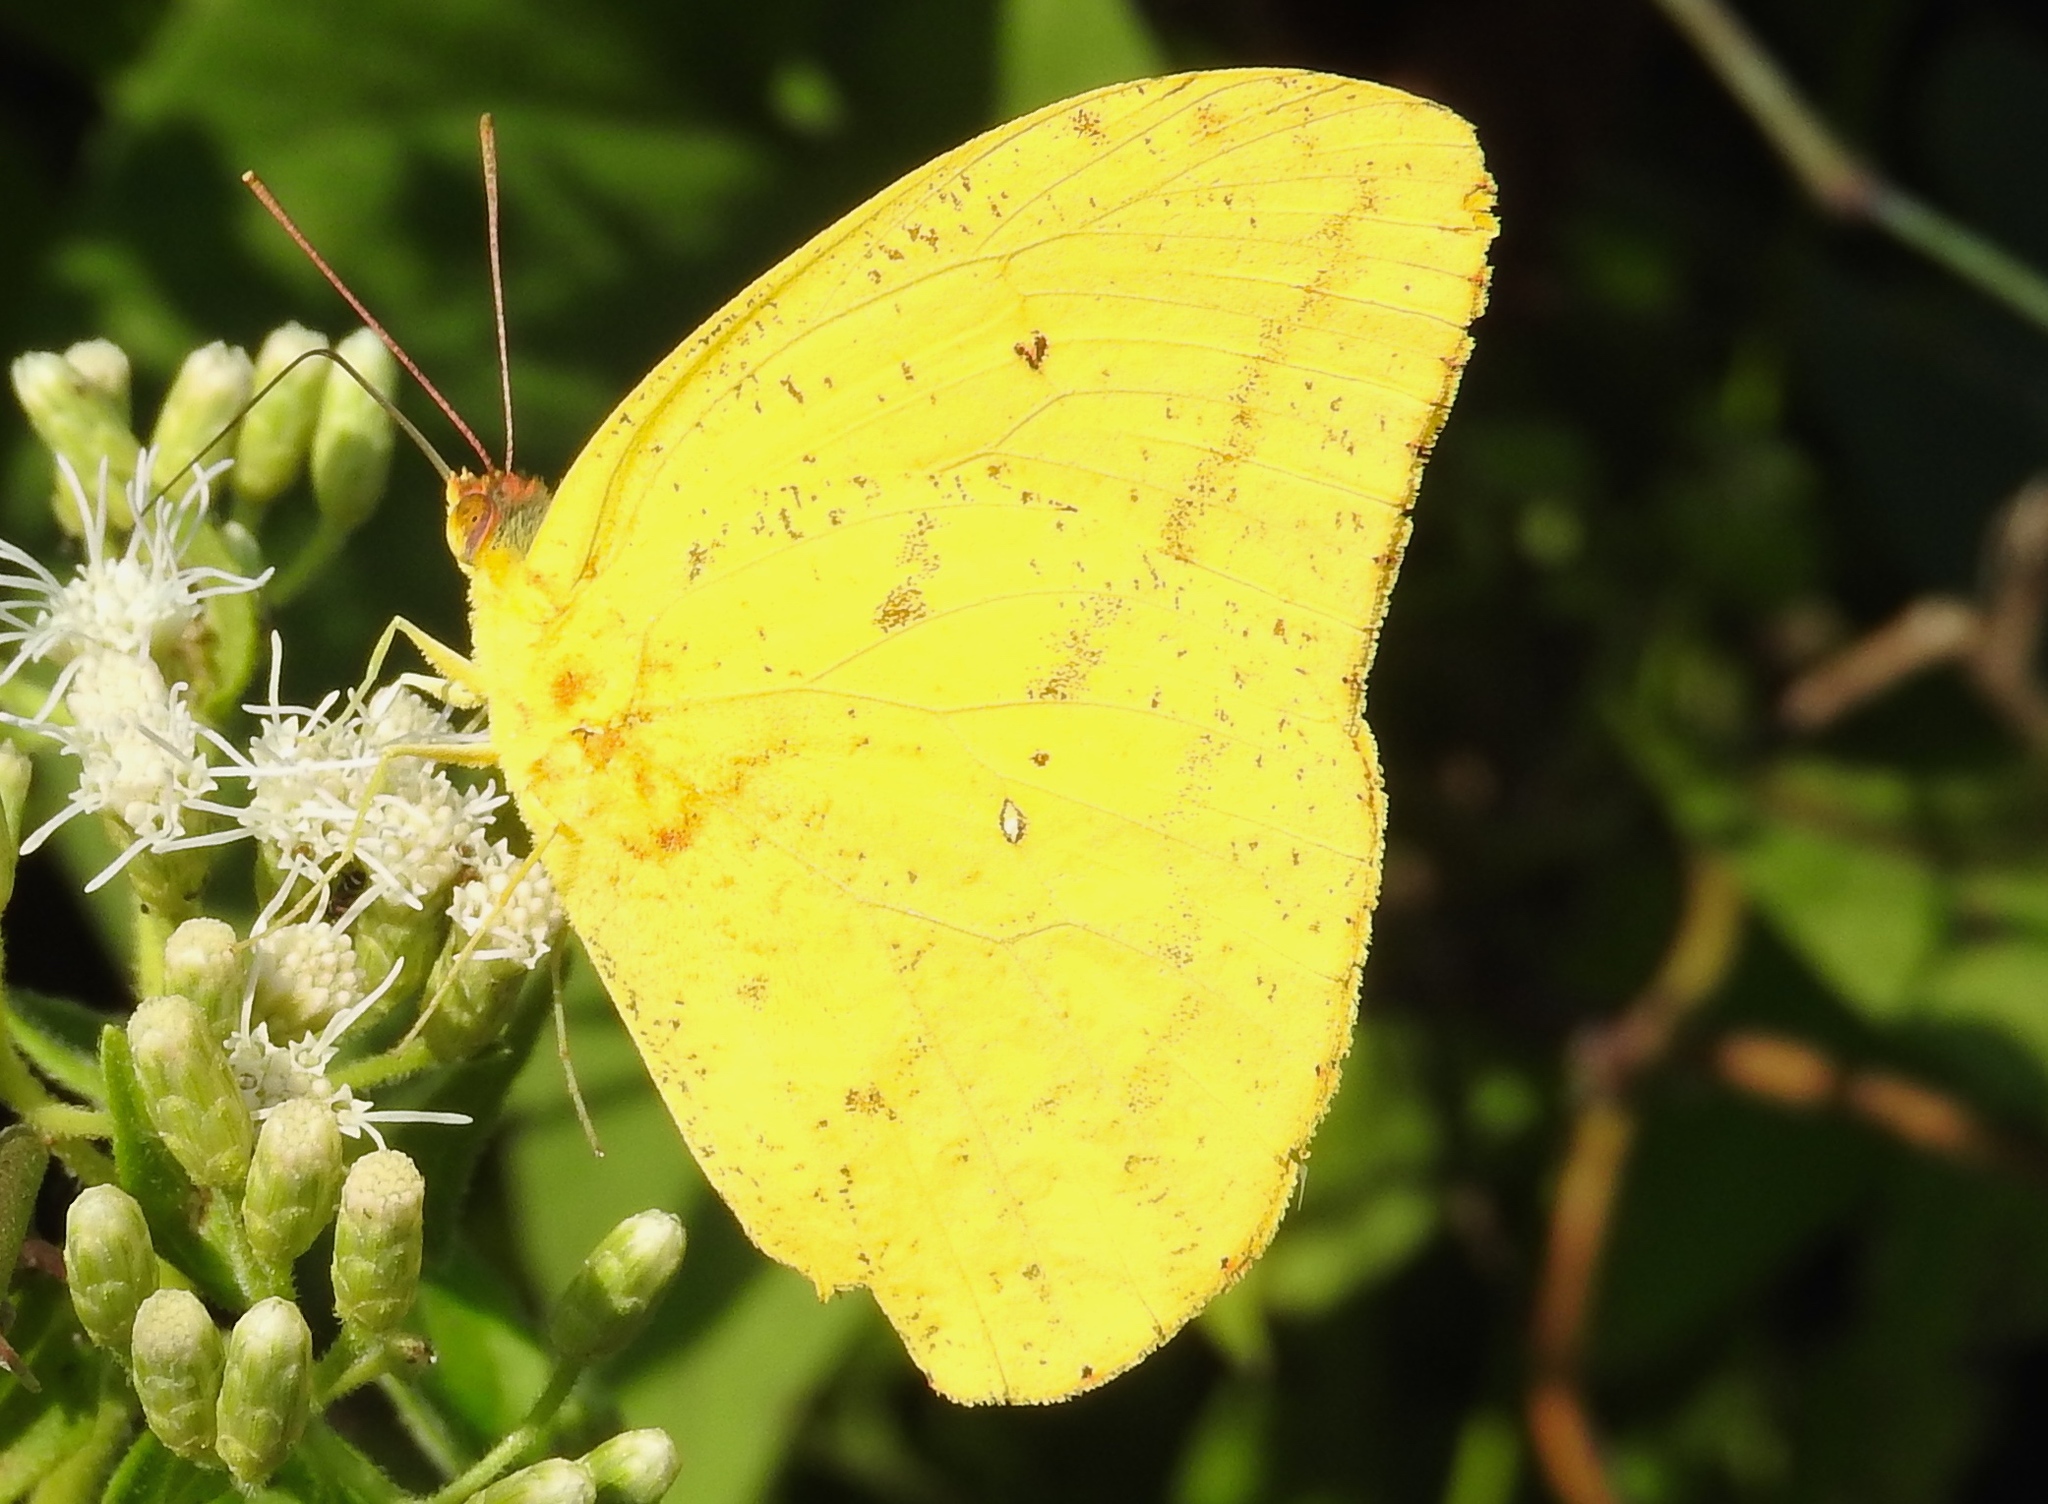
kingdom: Animalia
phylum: Arthropoda
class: Insecta
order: Lepidoptera
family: Pieridae
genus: Phoebis
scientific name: Phoebis agarithe
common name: Large orange sulphur
